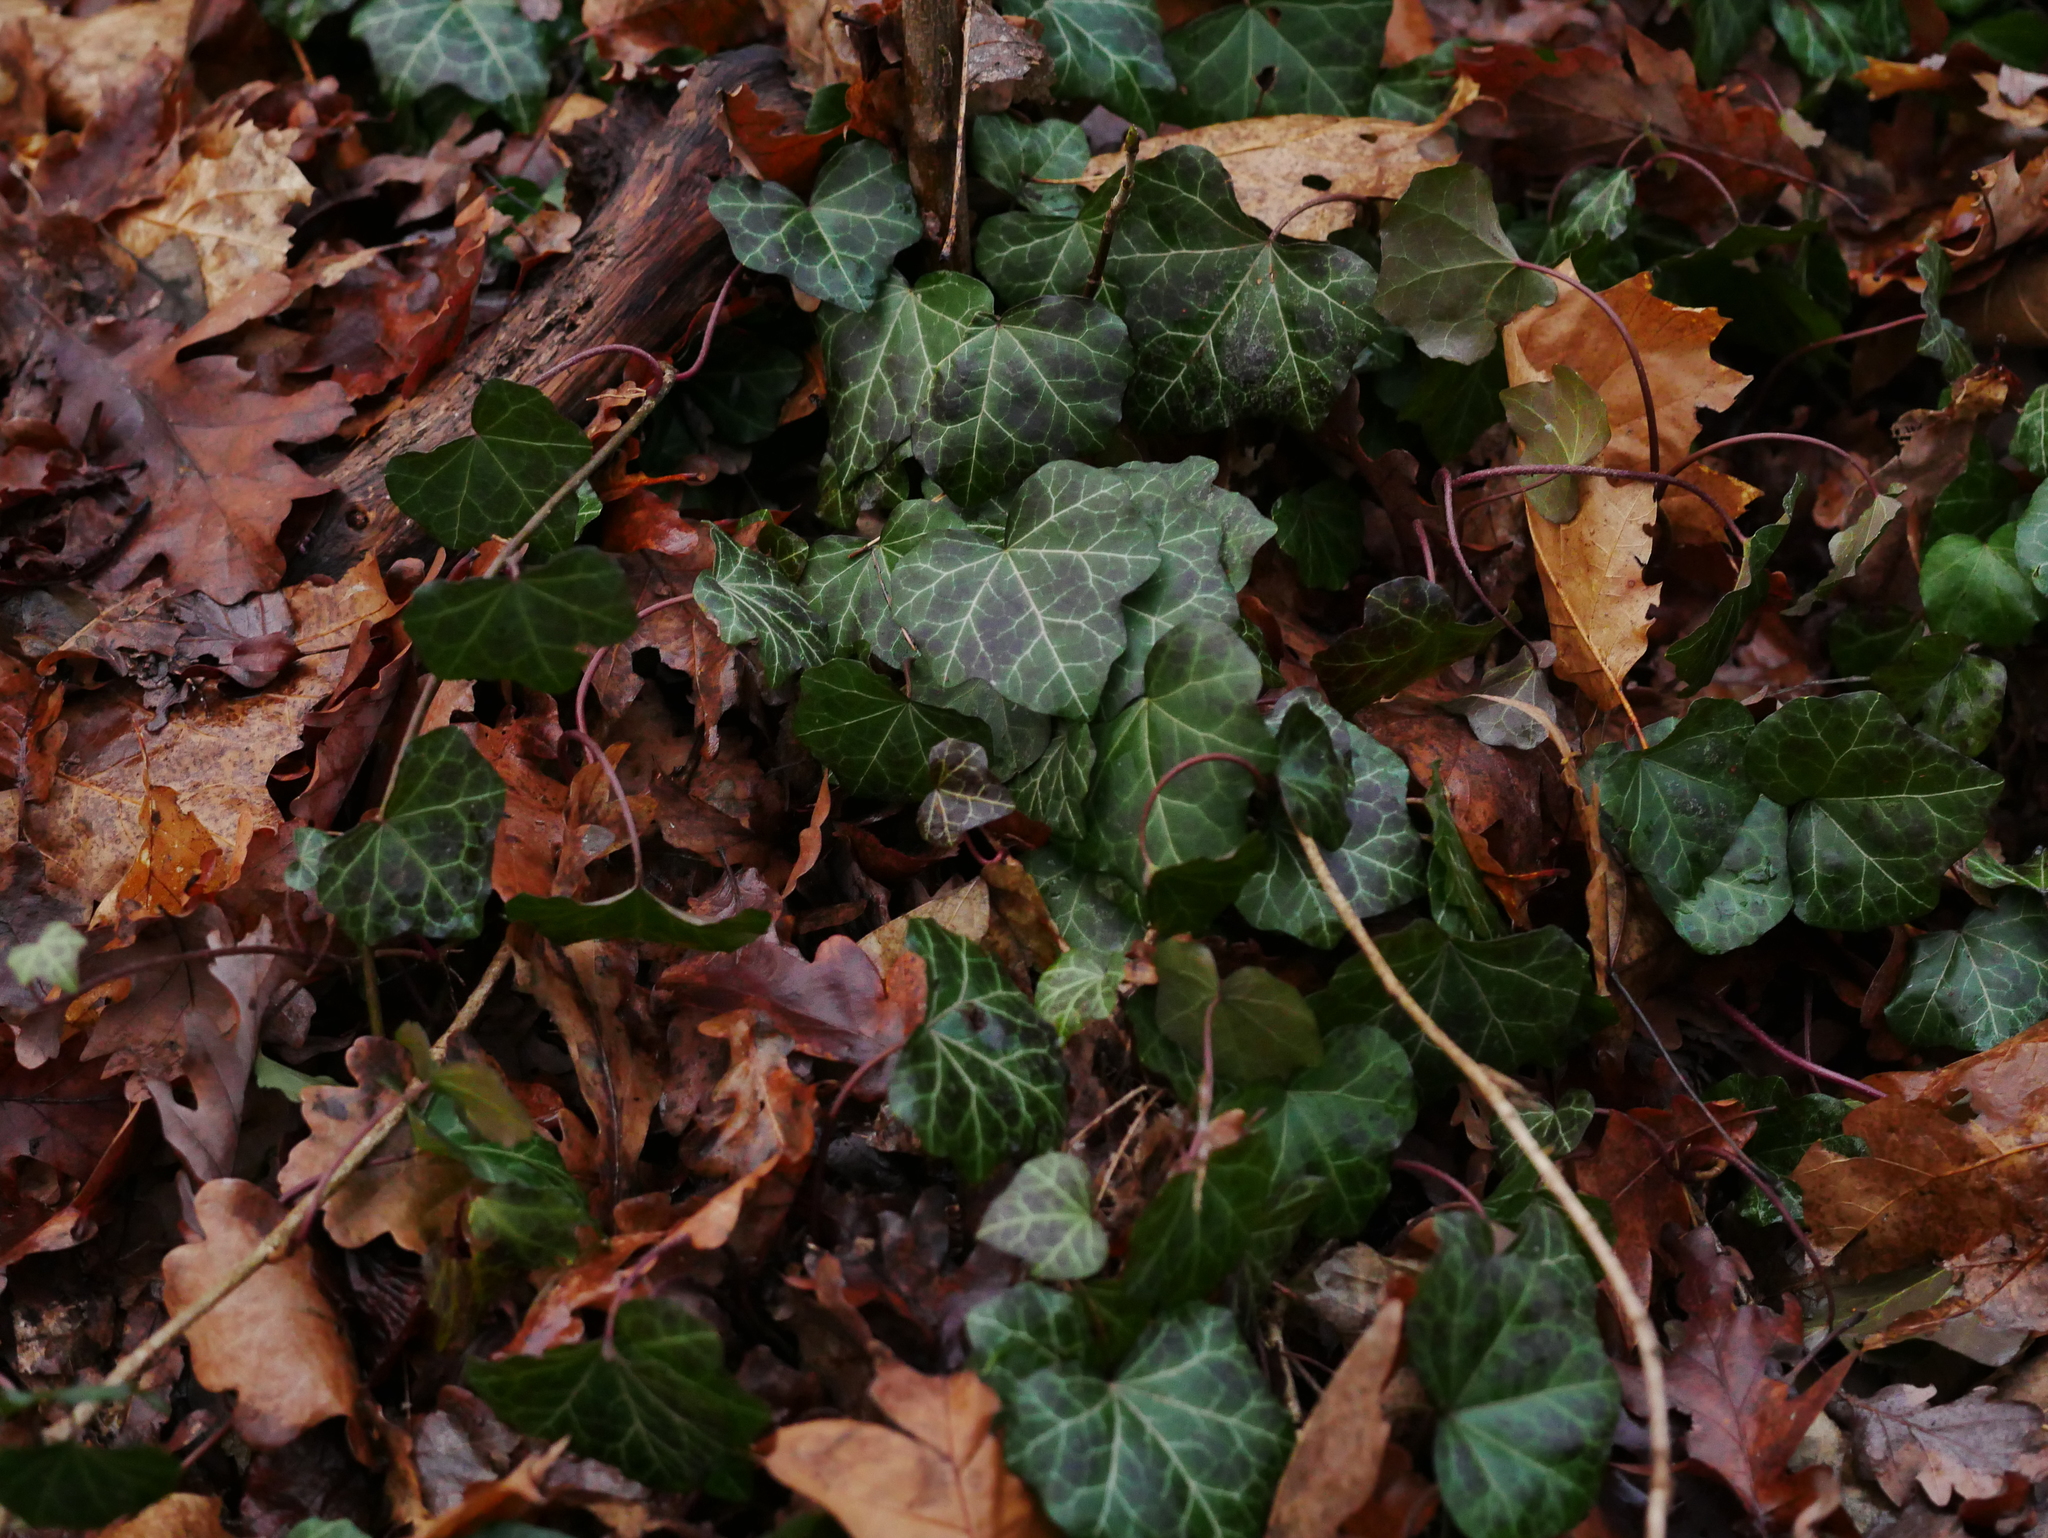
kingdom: Plantae
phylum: Tracheophyta
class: Magnoliopsida
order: Apiales
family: Araliaceae
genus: Hedera
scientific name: Hedera helix
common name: Ivy
